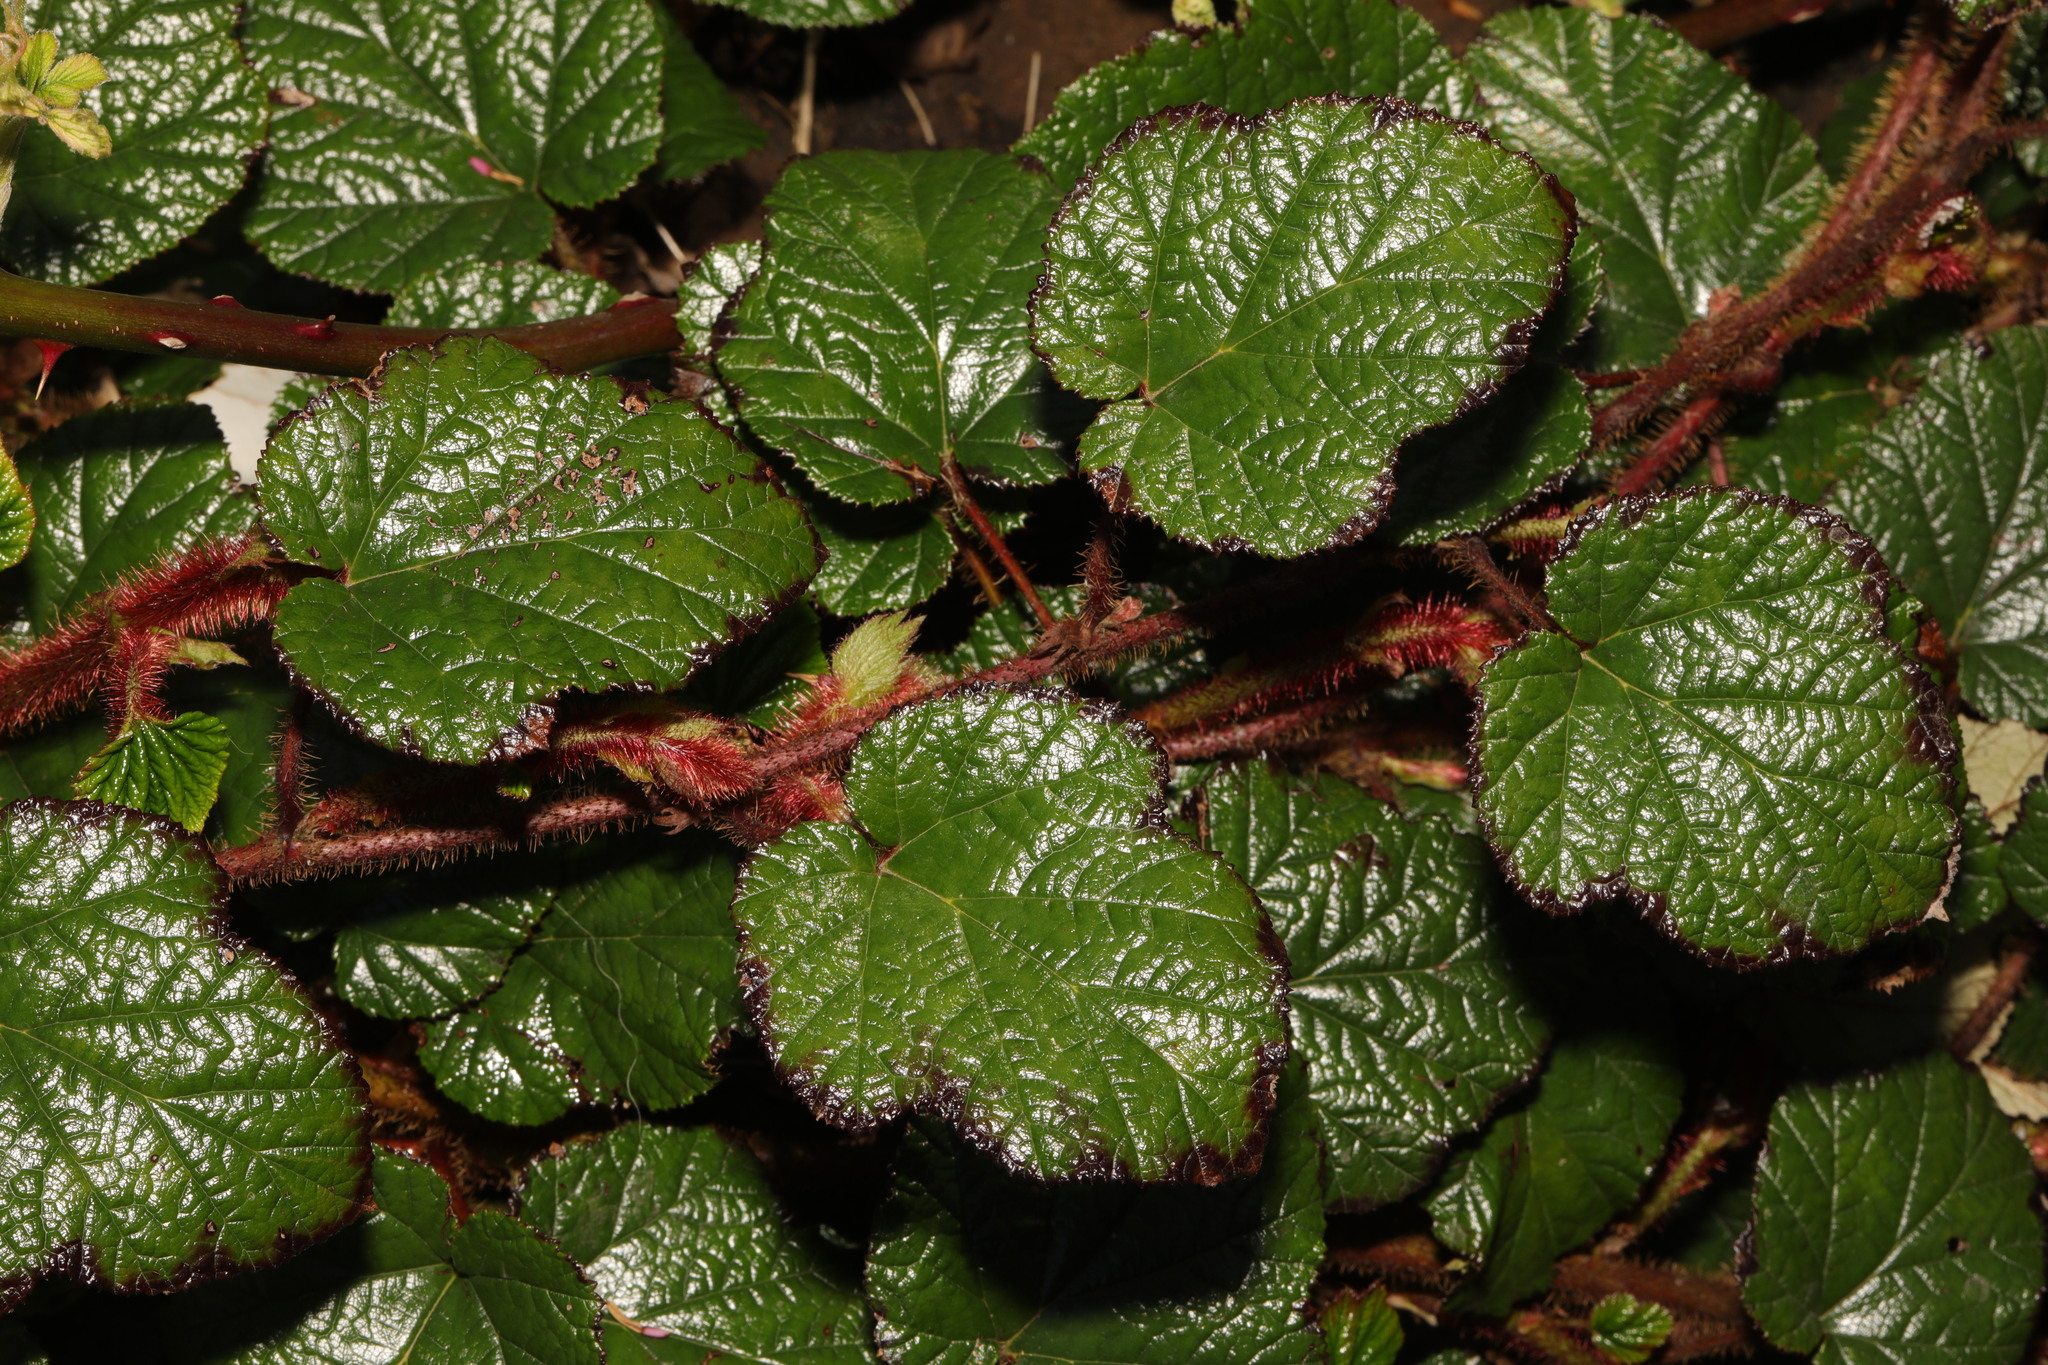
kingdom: Plantae
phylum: Tracheophyta
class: Magnoliopsida
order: Rosales
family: Rosaceae
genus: Rubus
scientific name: Rubus tricolor
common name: Chinese bramble
